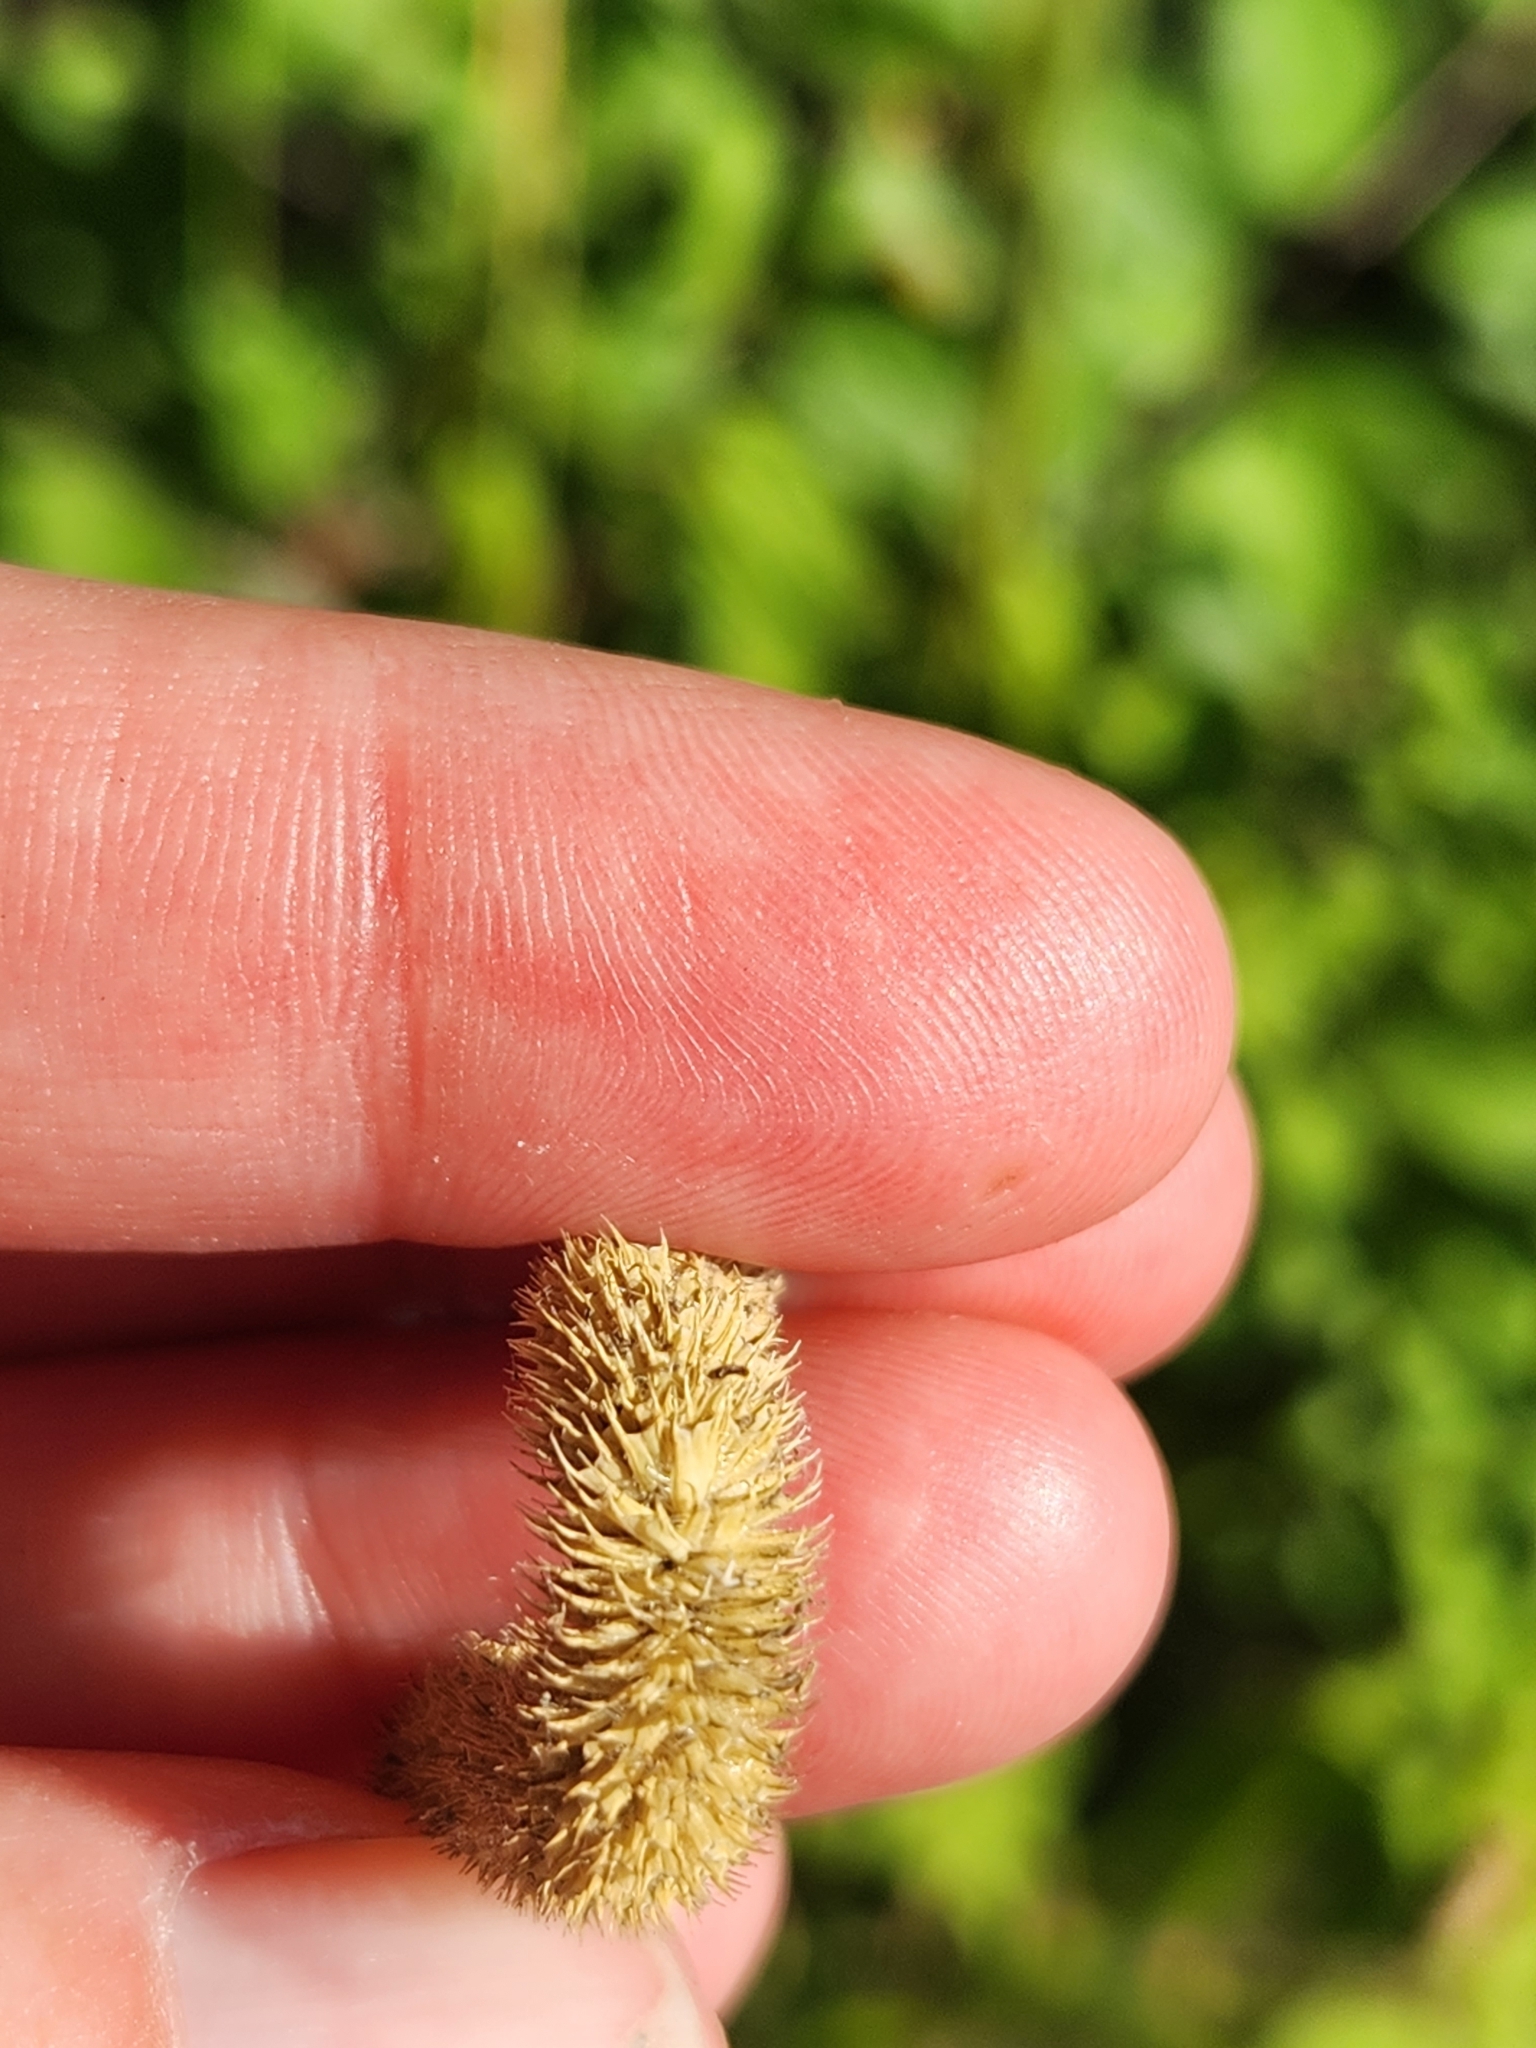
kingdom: Plantae
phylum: Tracheophyta
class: Liliopsida
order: Poales
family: Poaceae
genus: Phleum
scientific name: Phleum pratense
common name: Timothy grass
